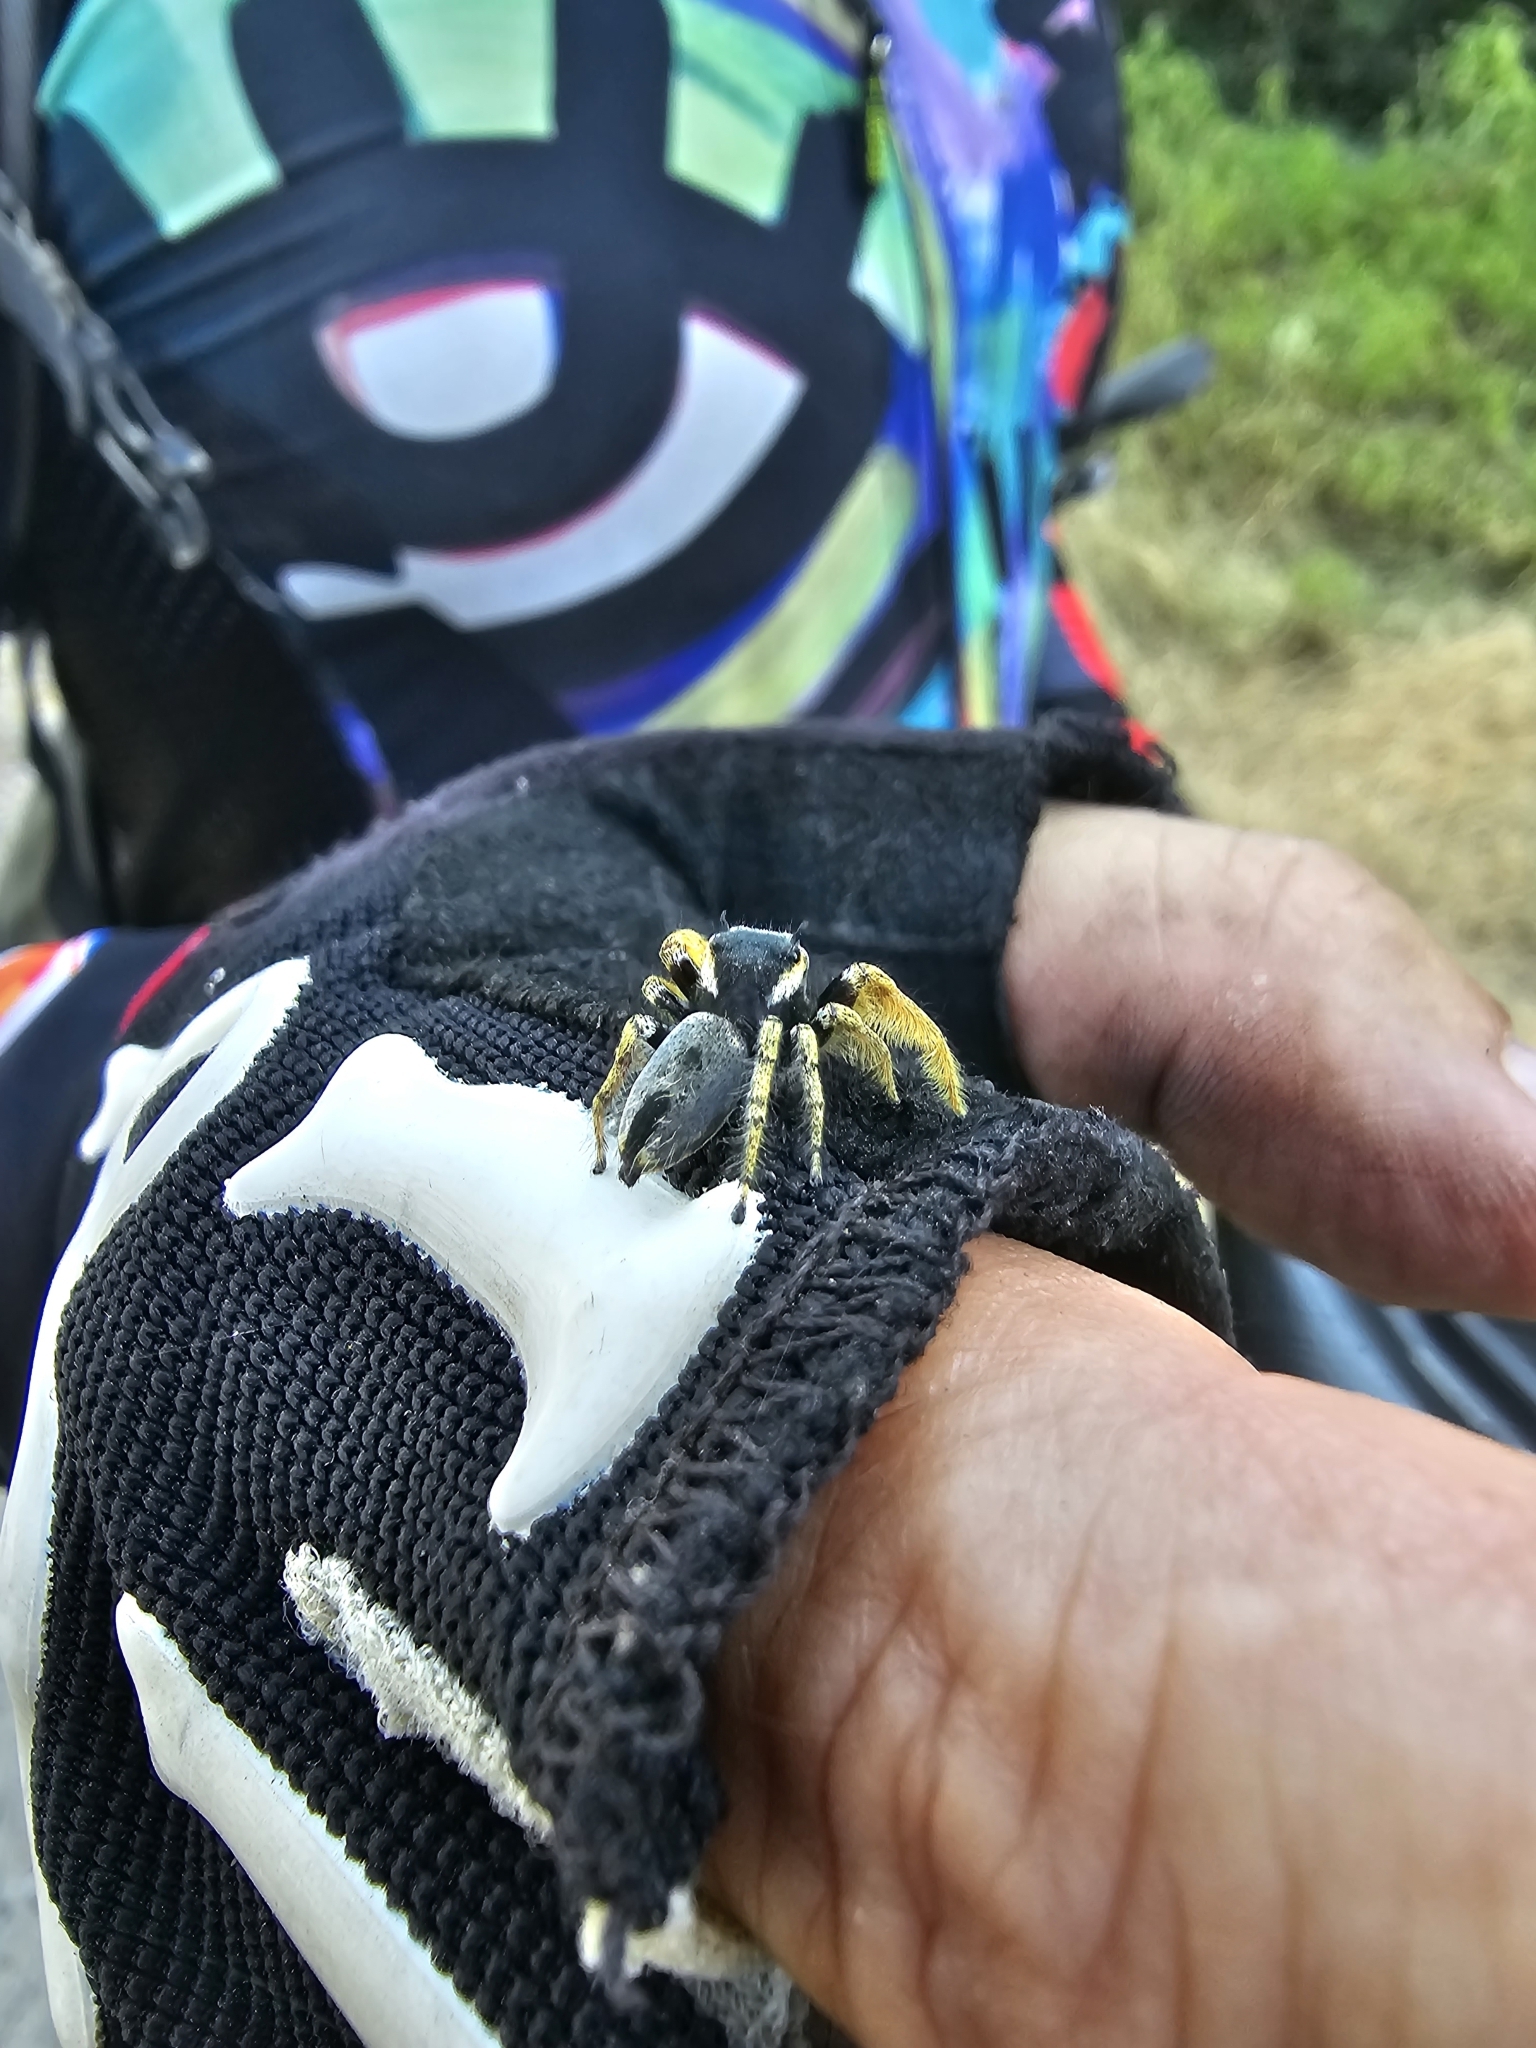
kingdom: Animalia
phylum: Arthropoda
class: Arachnida
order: Araneae
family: Salticidae
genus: Phidippus
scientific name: Phidippus arizonensis
